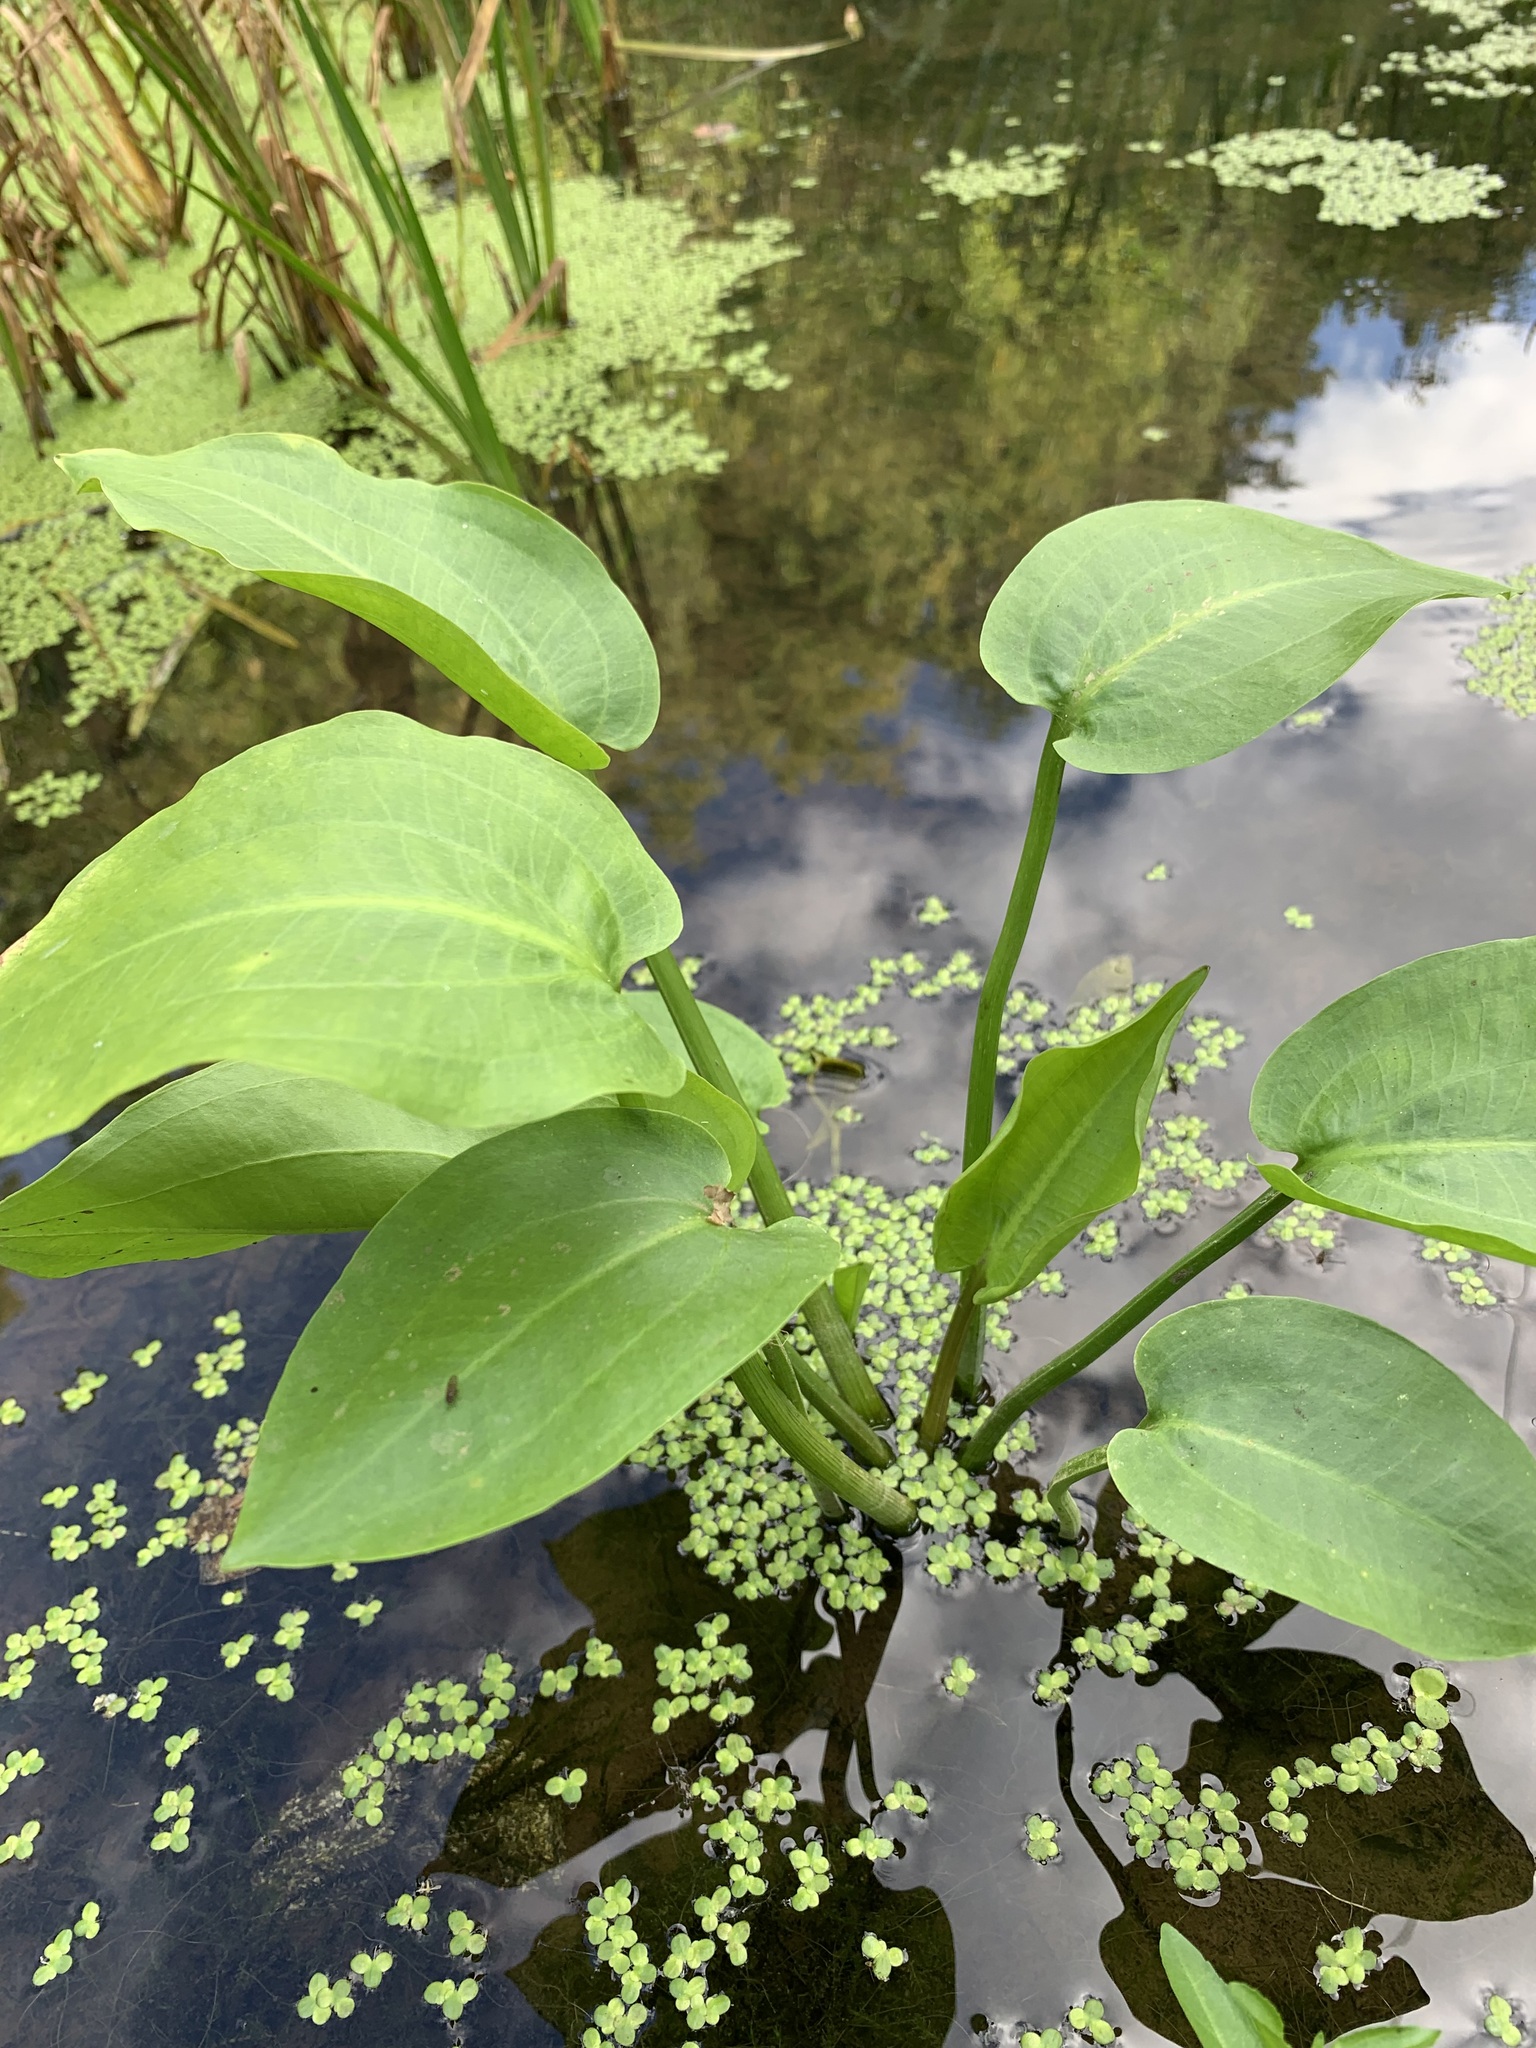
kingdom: Plantae
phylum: Tracheophyta
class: Liliopsida
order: Alismatales
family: Alismataceae
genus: Alisma
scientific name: Alisma plantago-aquatica
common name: Water-plantain
